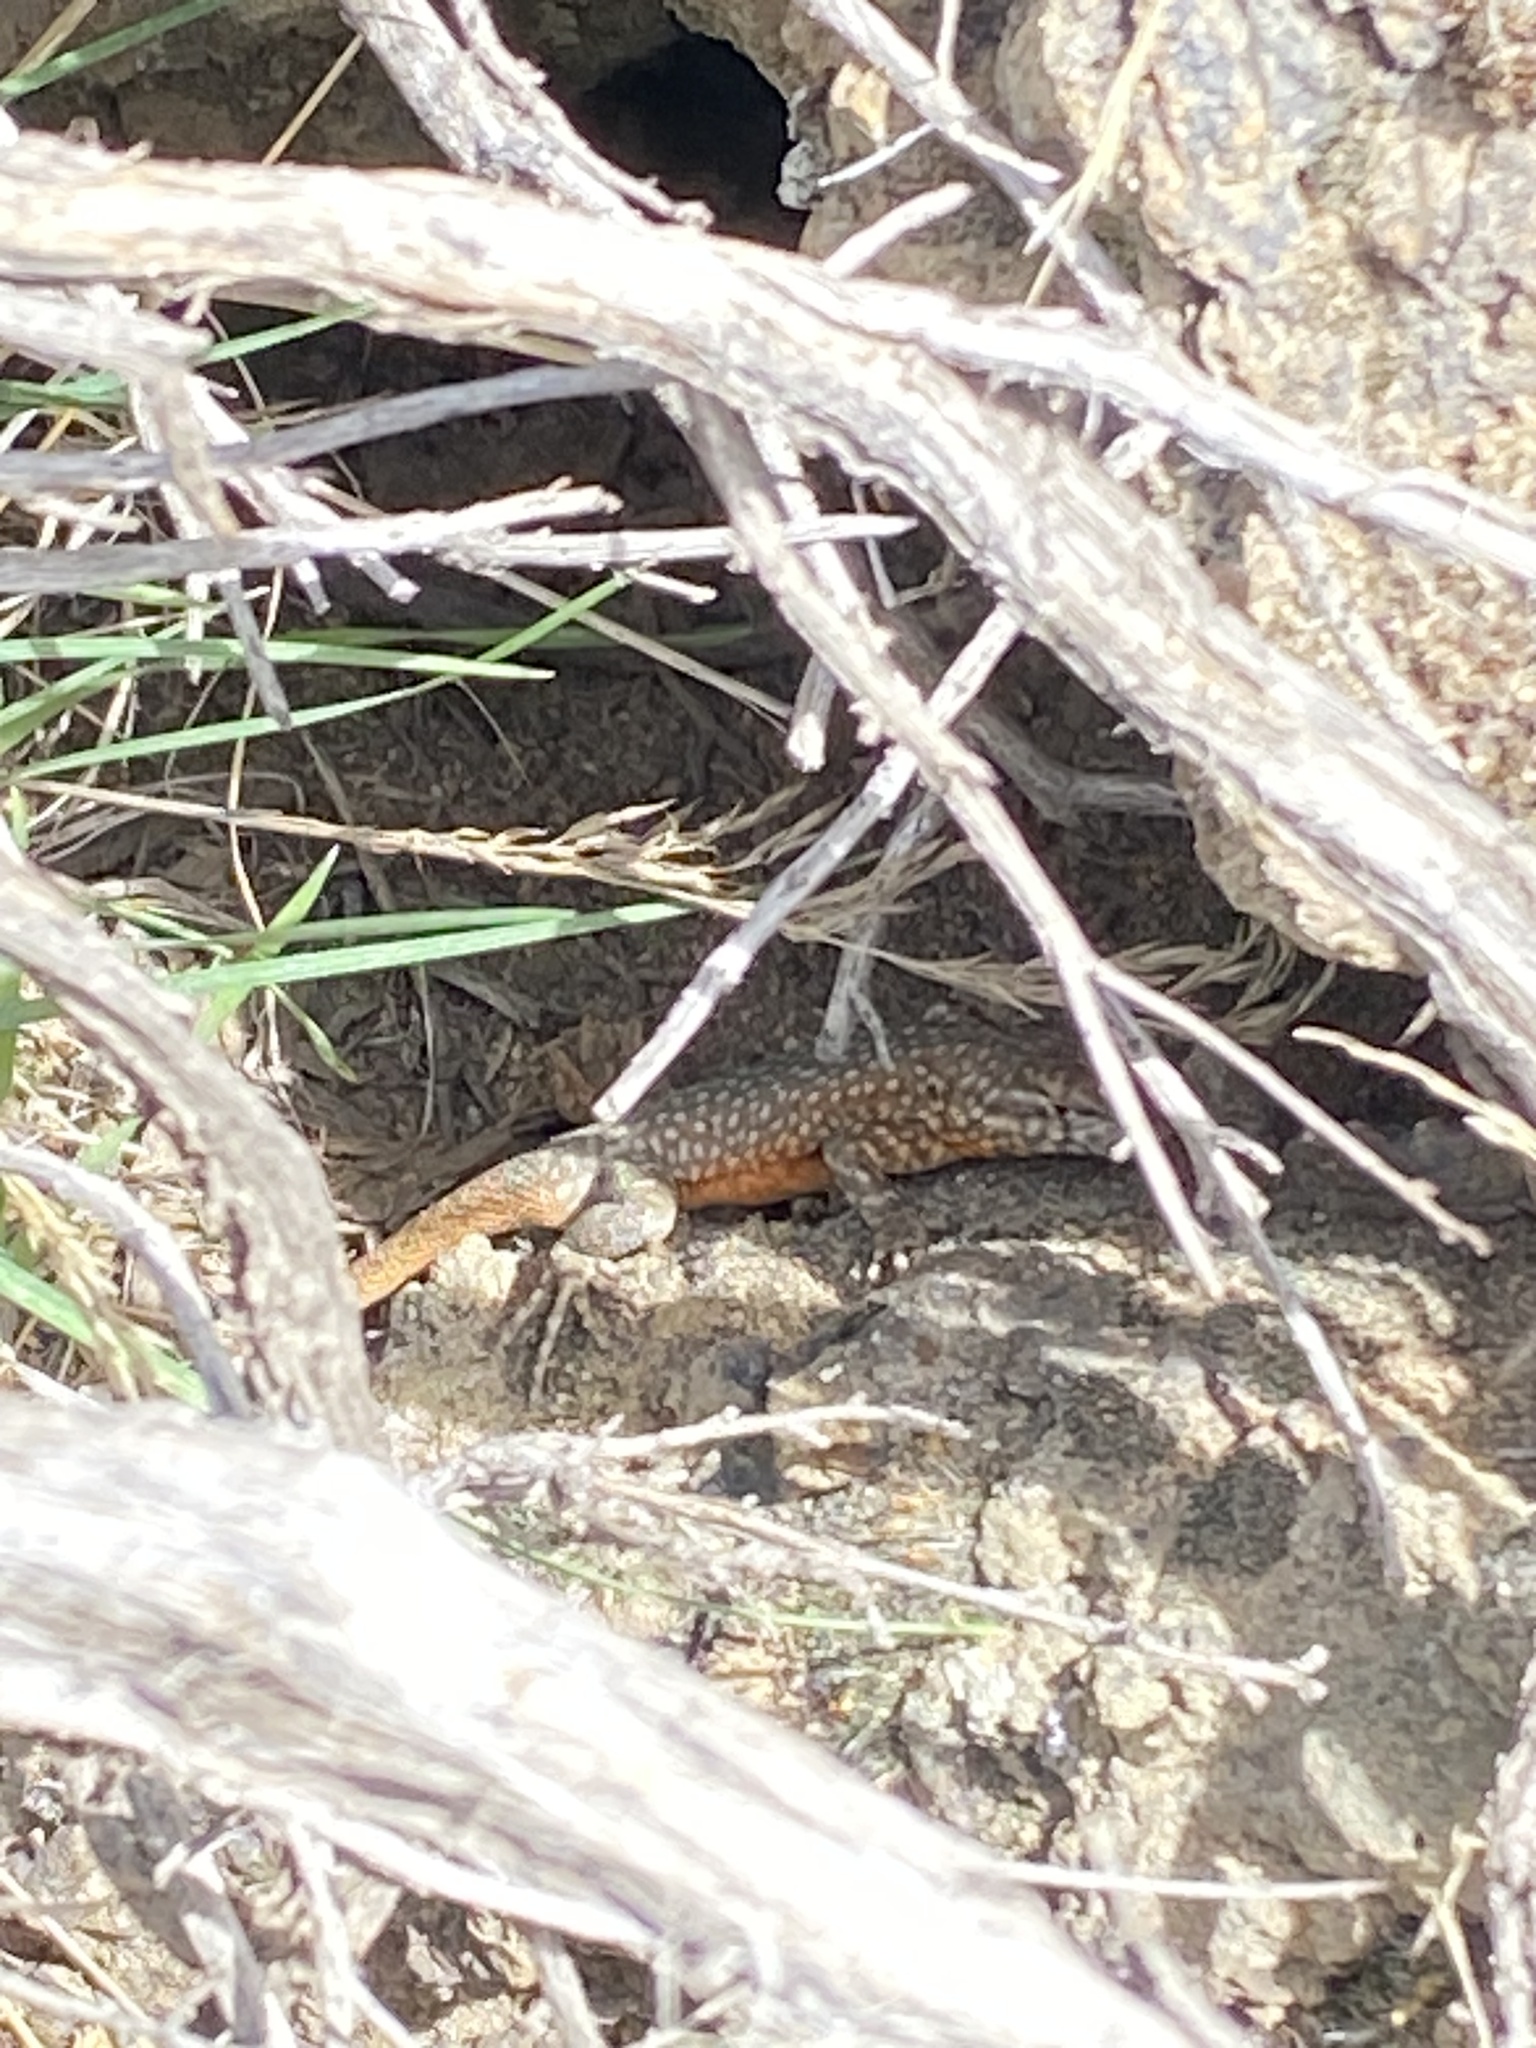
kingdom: Animalia
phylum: Chordata
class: Squamata
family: Phrynosomatidae
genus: Uta
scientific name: Uta stansburiana
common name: Side-blotched lizard
